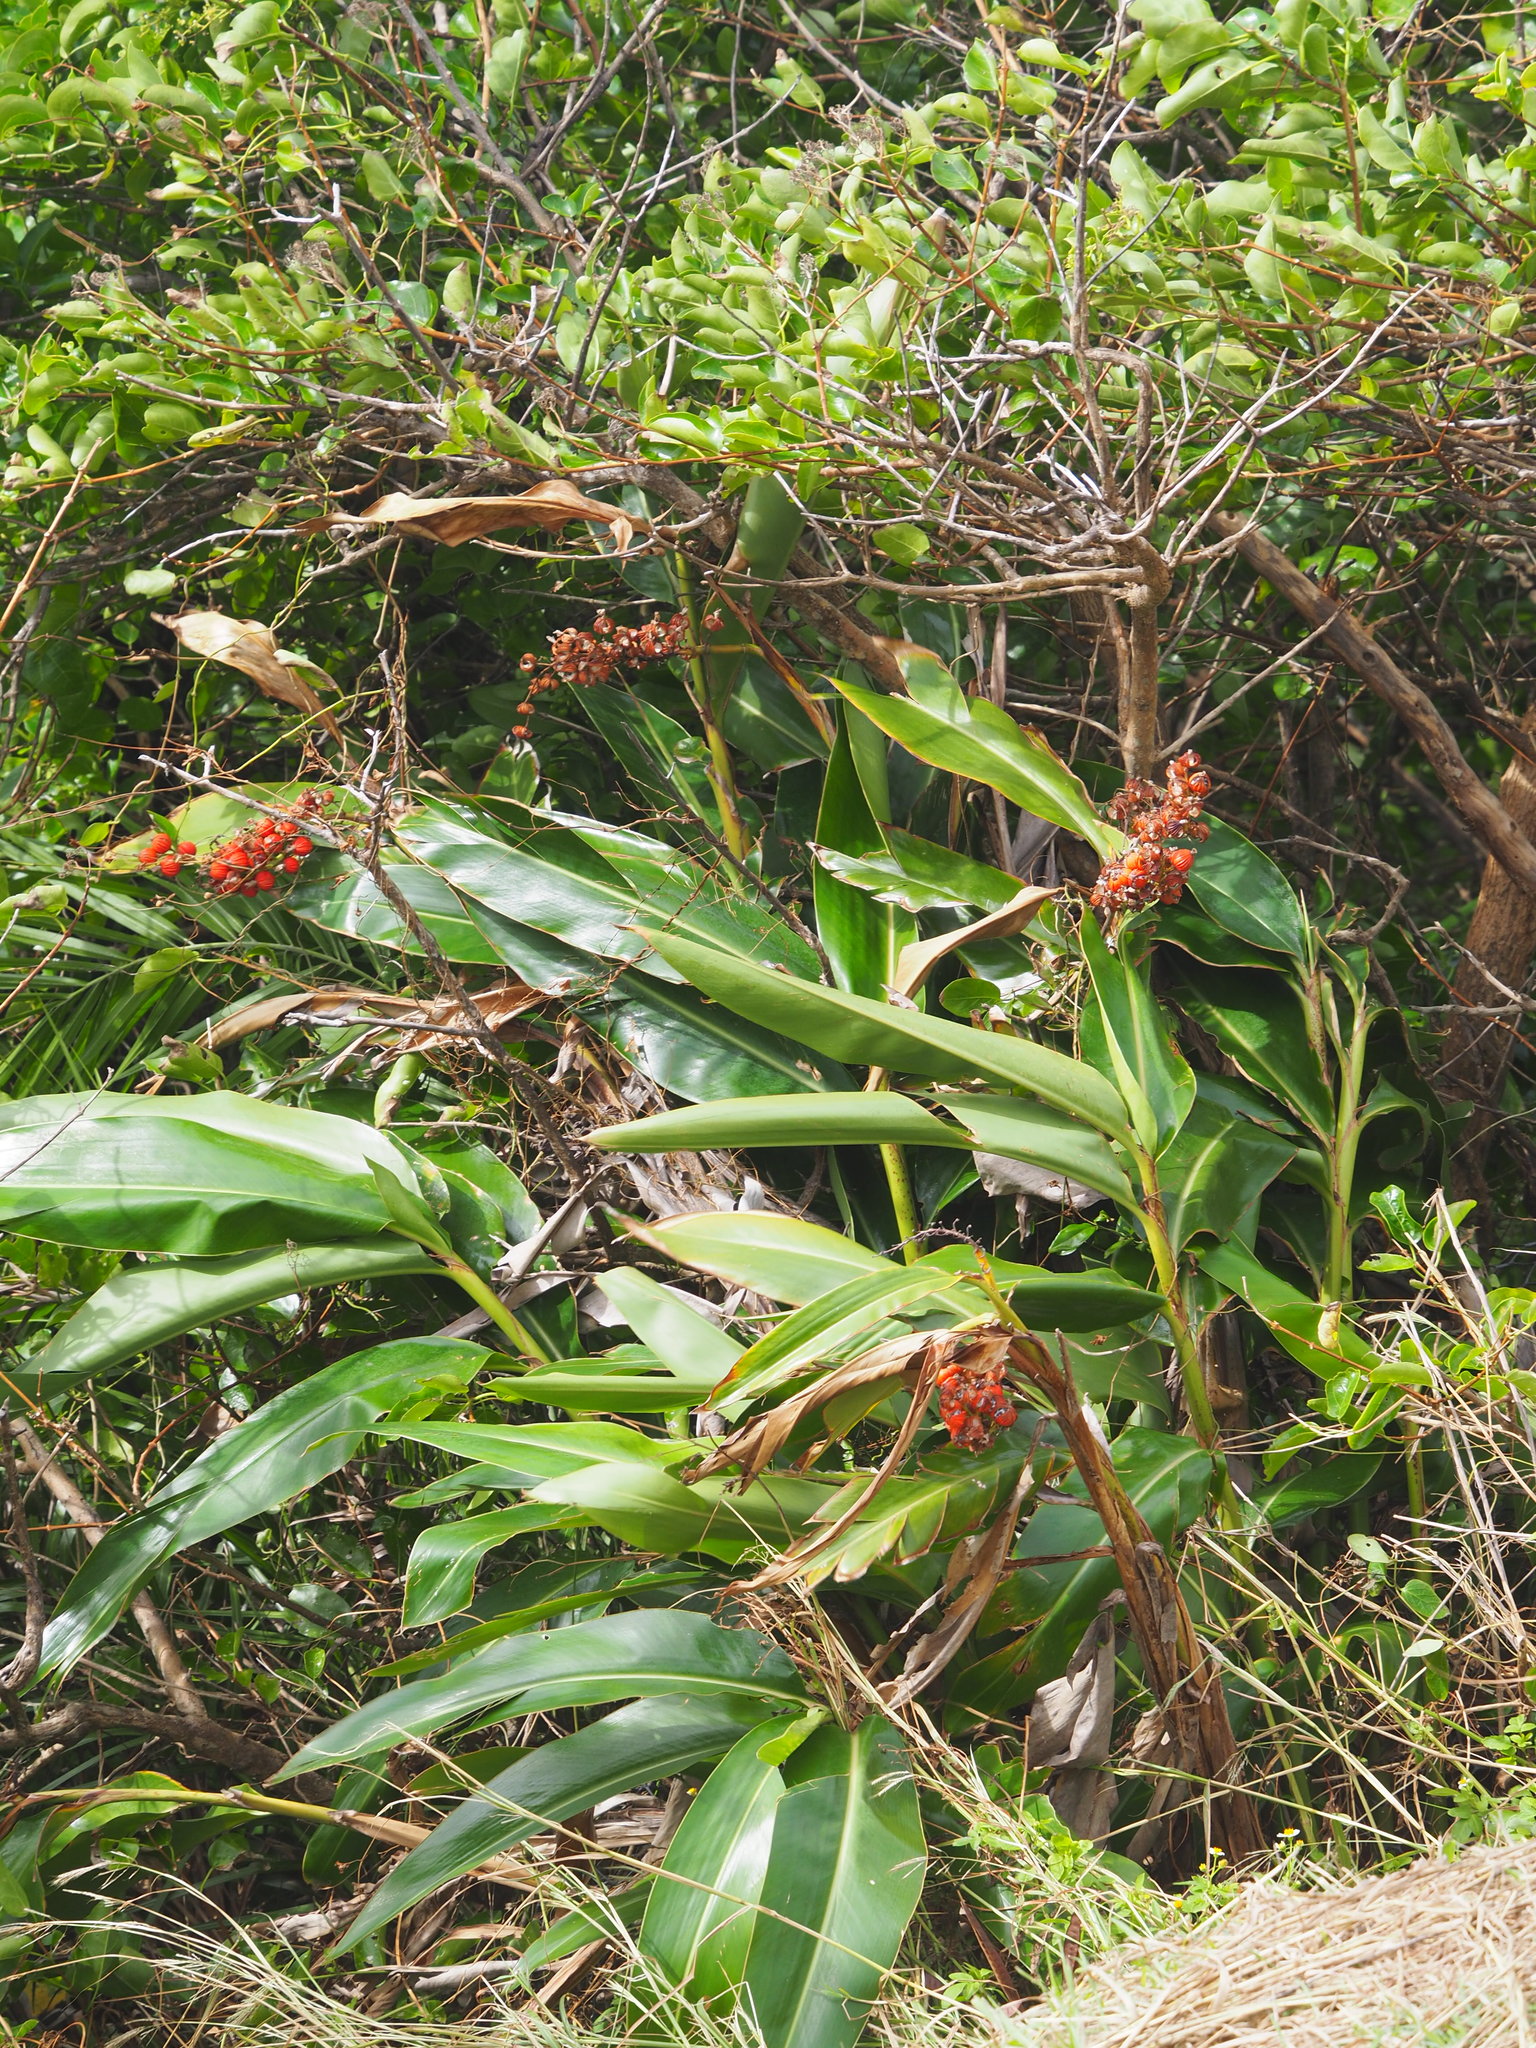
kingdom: Plantae
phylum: Tracheophyta
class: Liliopsida
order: Zingiberales
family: Zingiberaceae
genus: Alpinia
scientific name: Alpinia koshunensis
